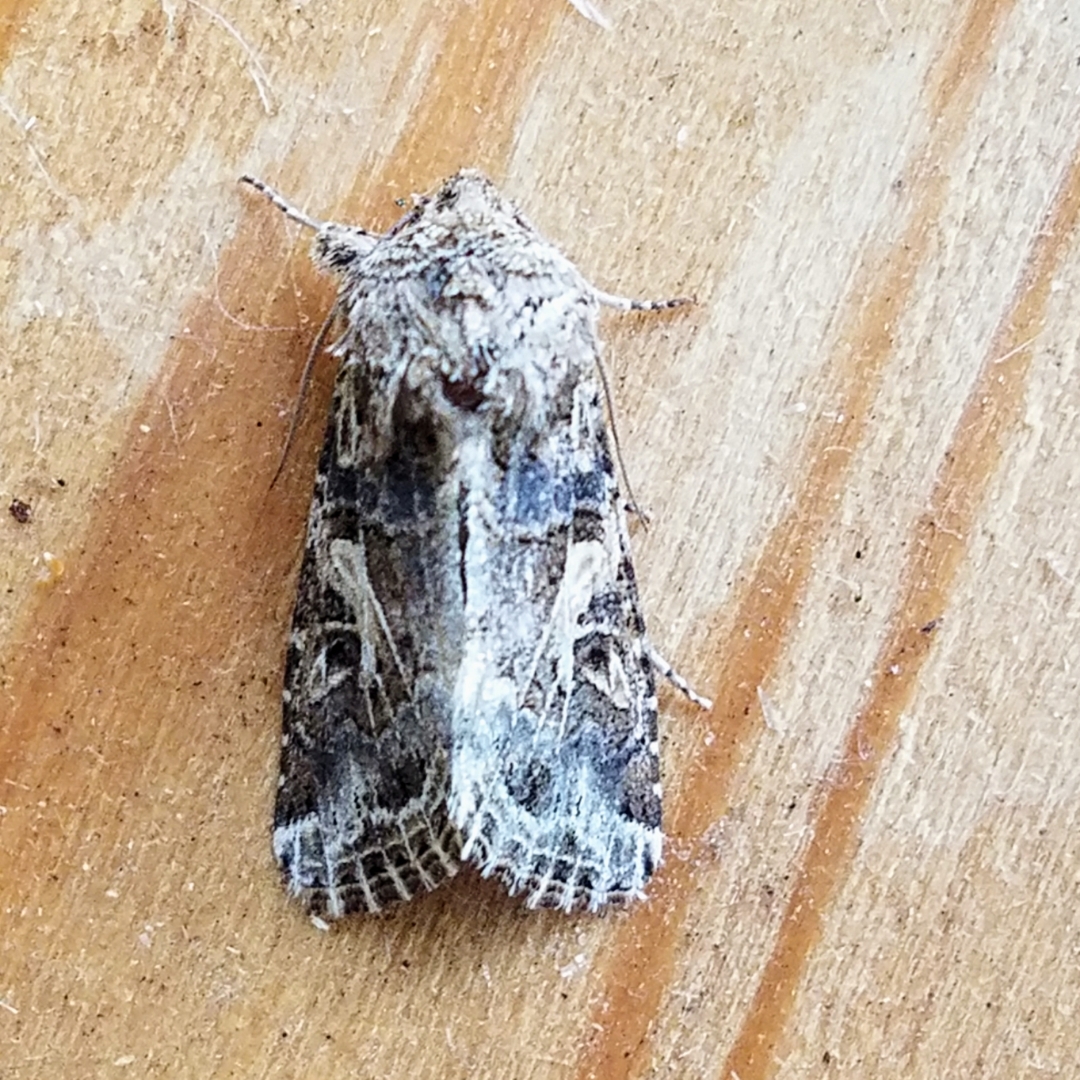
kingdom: Animalia
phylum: Arthropoda
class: Insecta
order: Lepidoptera
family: Noctuidae
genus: Spodoptera
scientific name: Spodoptera praefica
